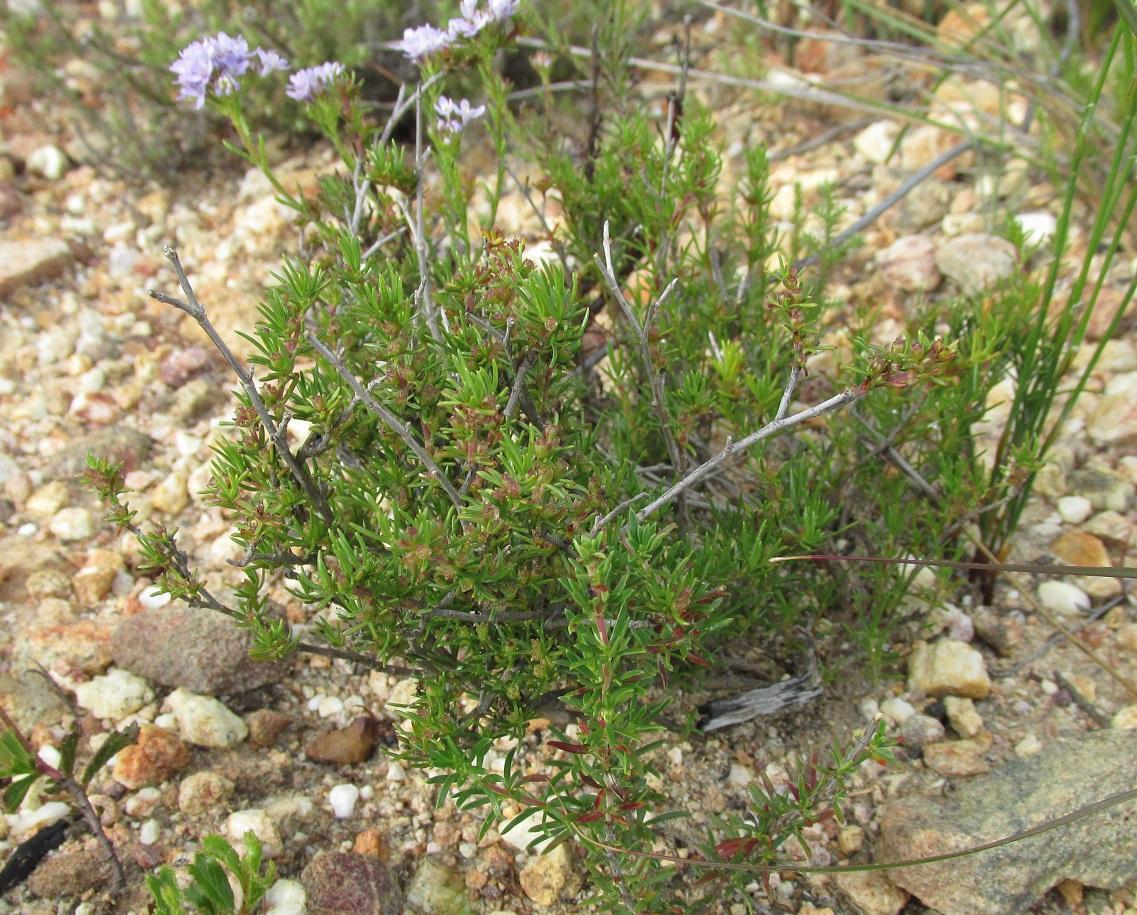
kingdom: Plantae
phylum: Tracheophyta
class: Magnoliopsida
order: Gentianales
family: Rubiaceae
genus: Nenax
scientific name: Nenax divaricata
